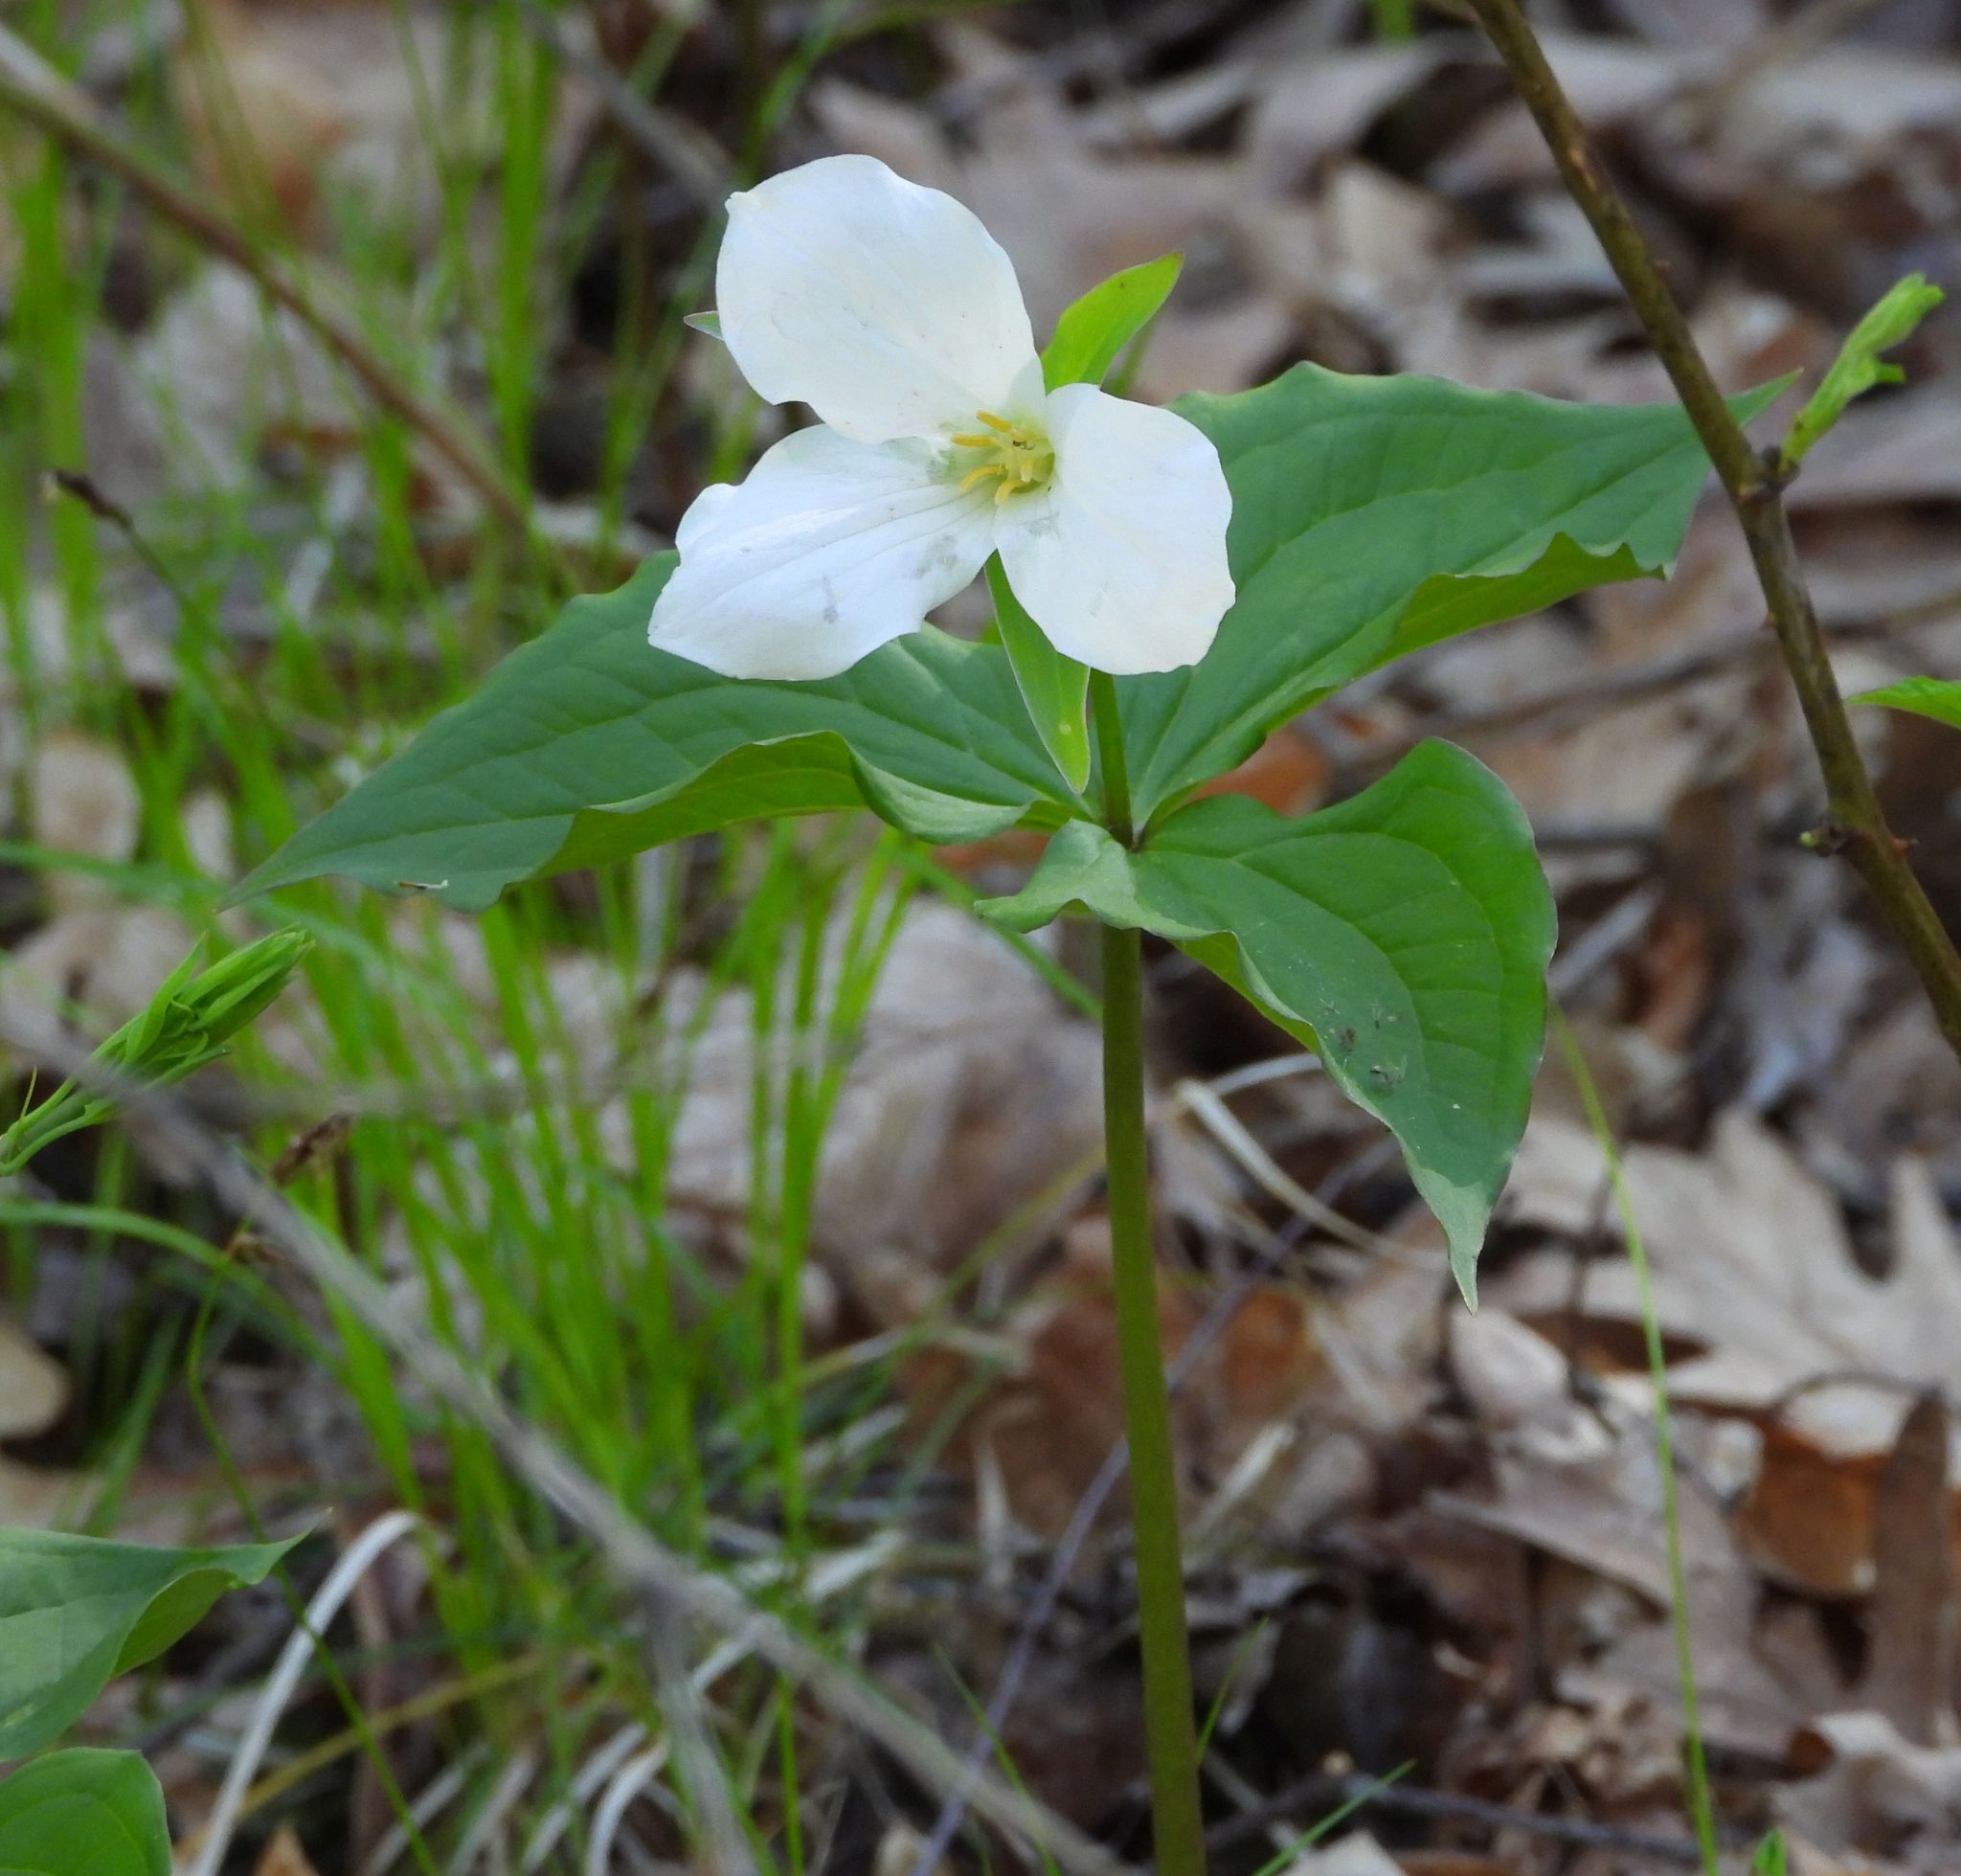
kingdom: Plantae
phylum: Tracheophyta
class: Liliopsida
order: Liliales
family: Melanthiaceae
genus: Trillium
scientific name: Trillium grandiflorum
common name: Great white trillium
